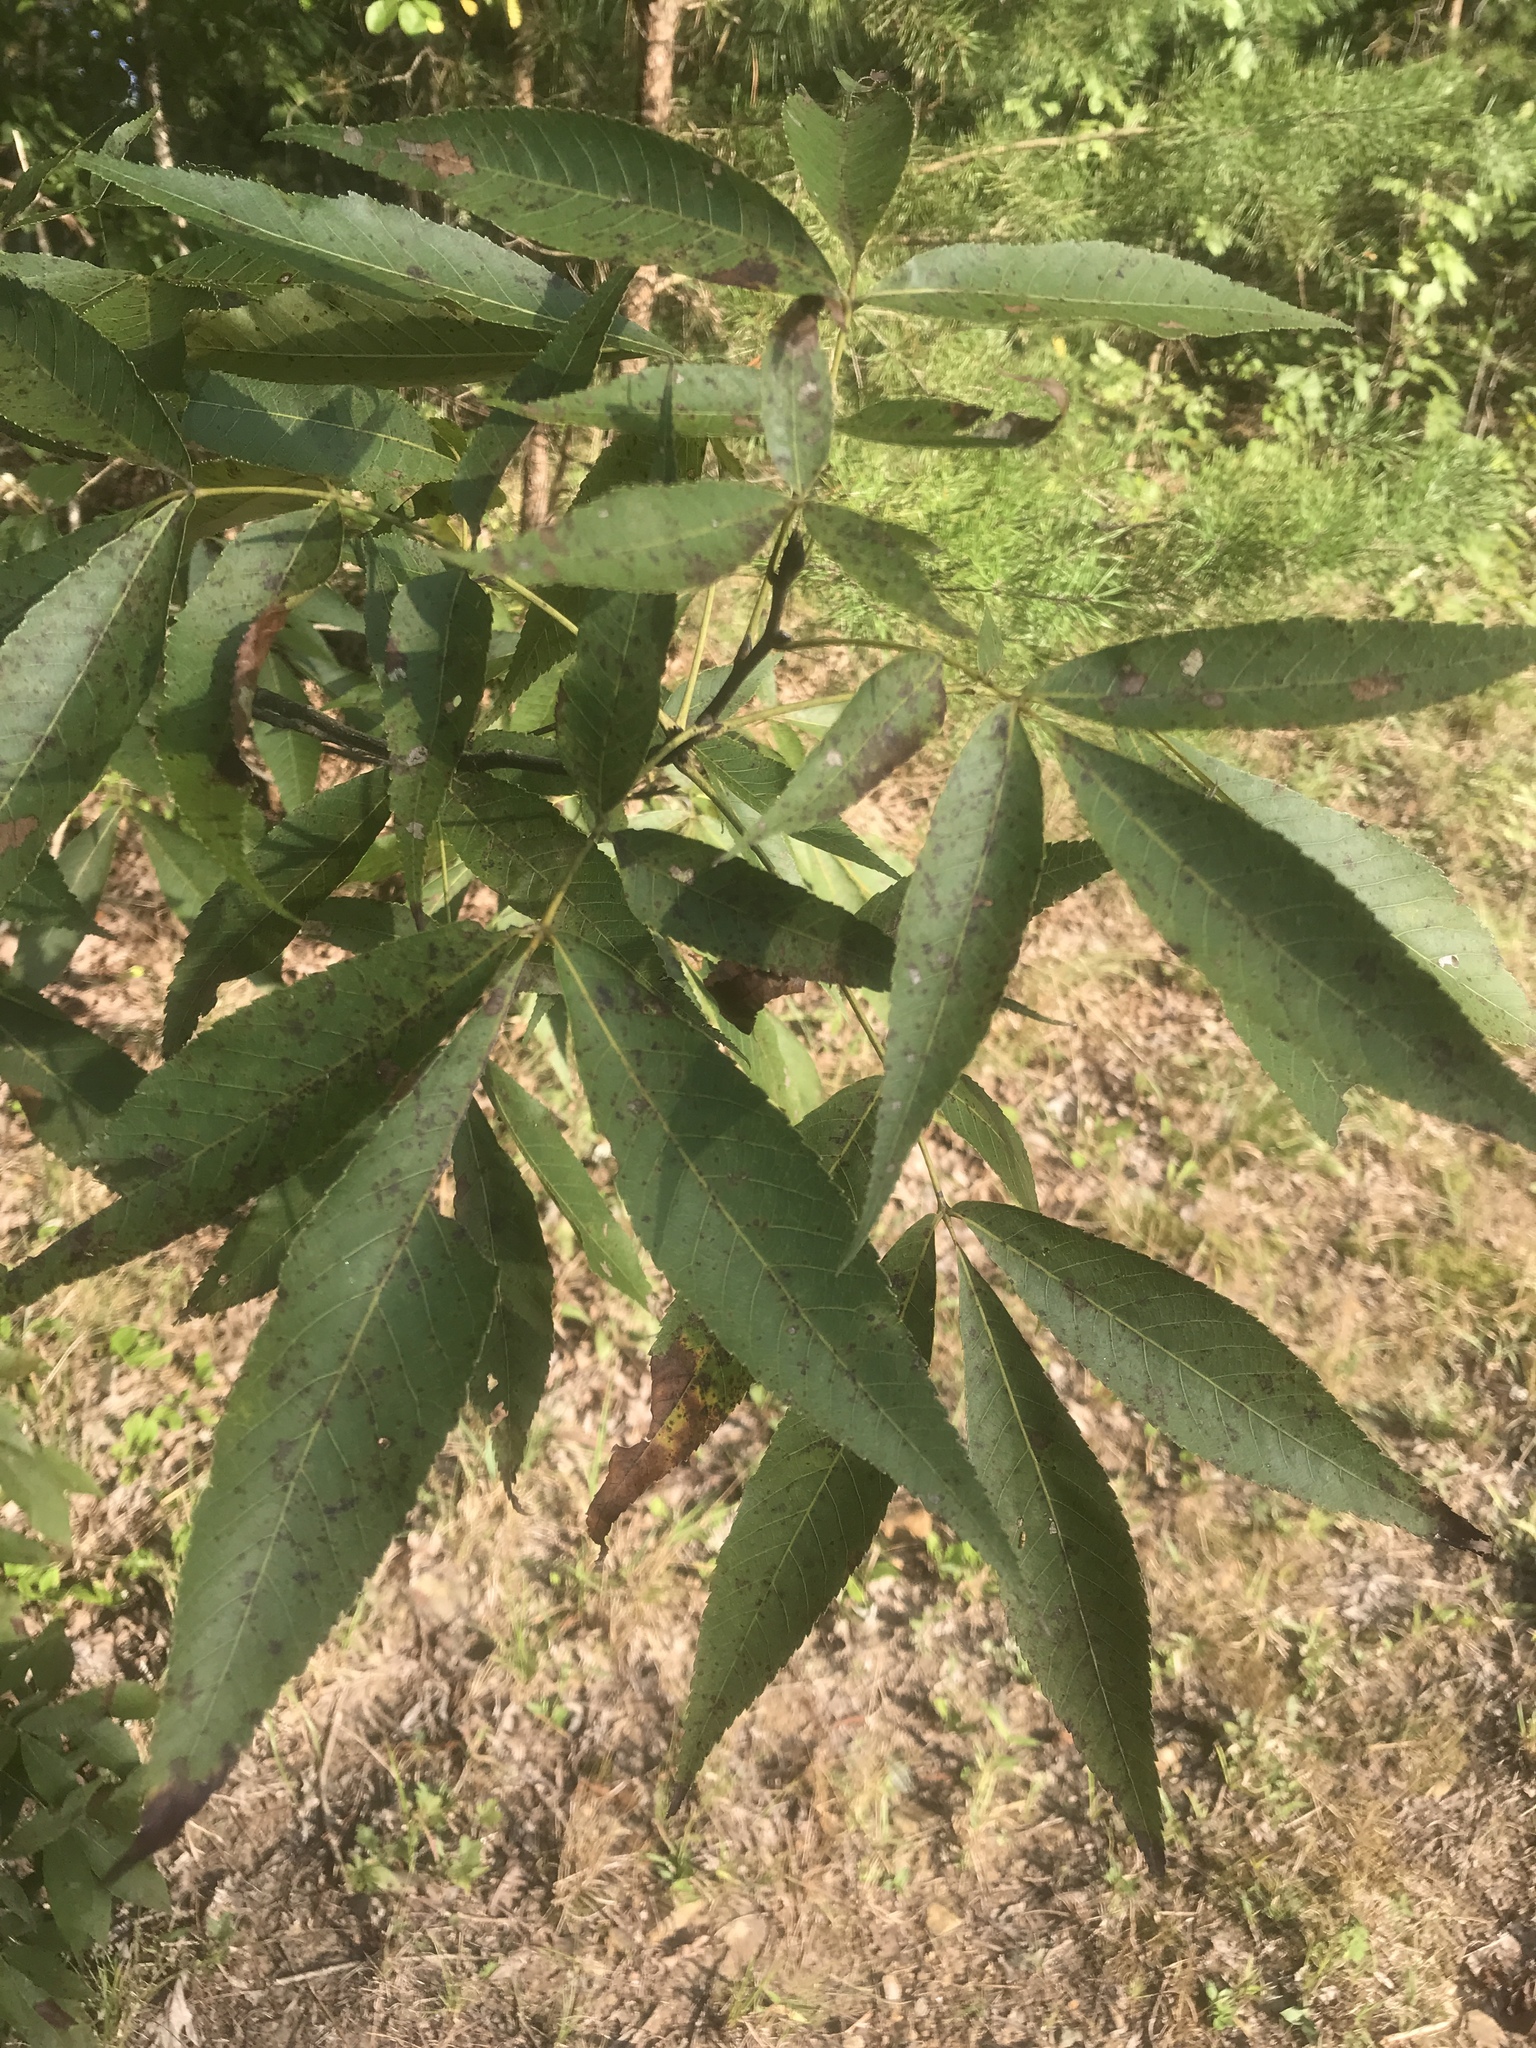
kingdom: Plantae
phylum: Tracheophyta
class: Magnoliopsida
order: Fagales
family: Juglandaceae
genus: Carya
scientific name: Carya carolinae-septentrionalis
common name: Carolina hickory
